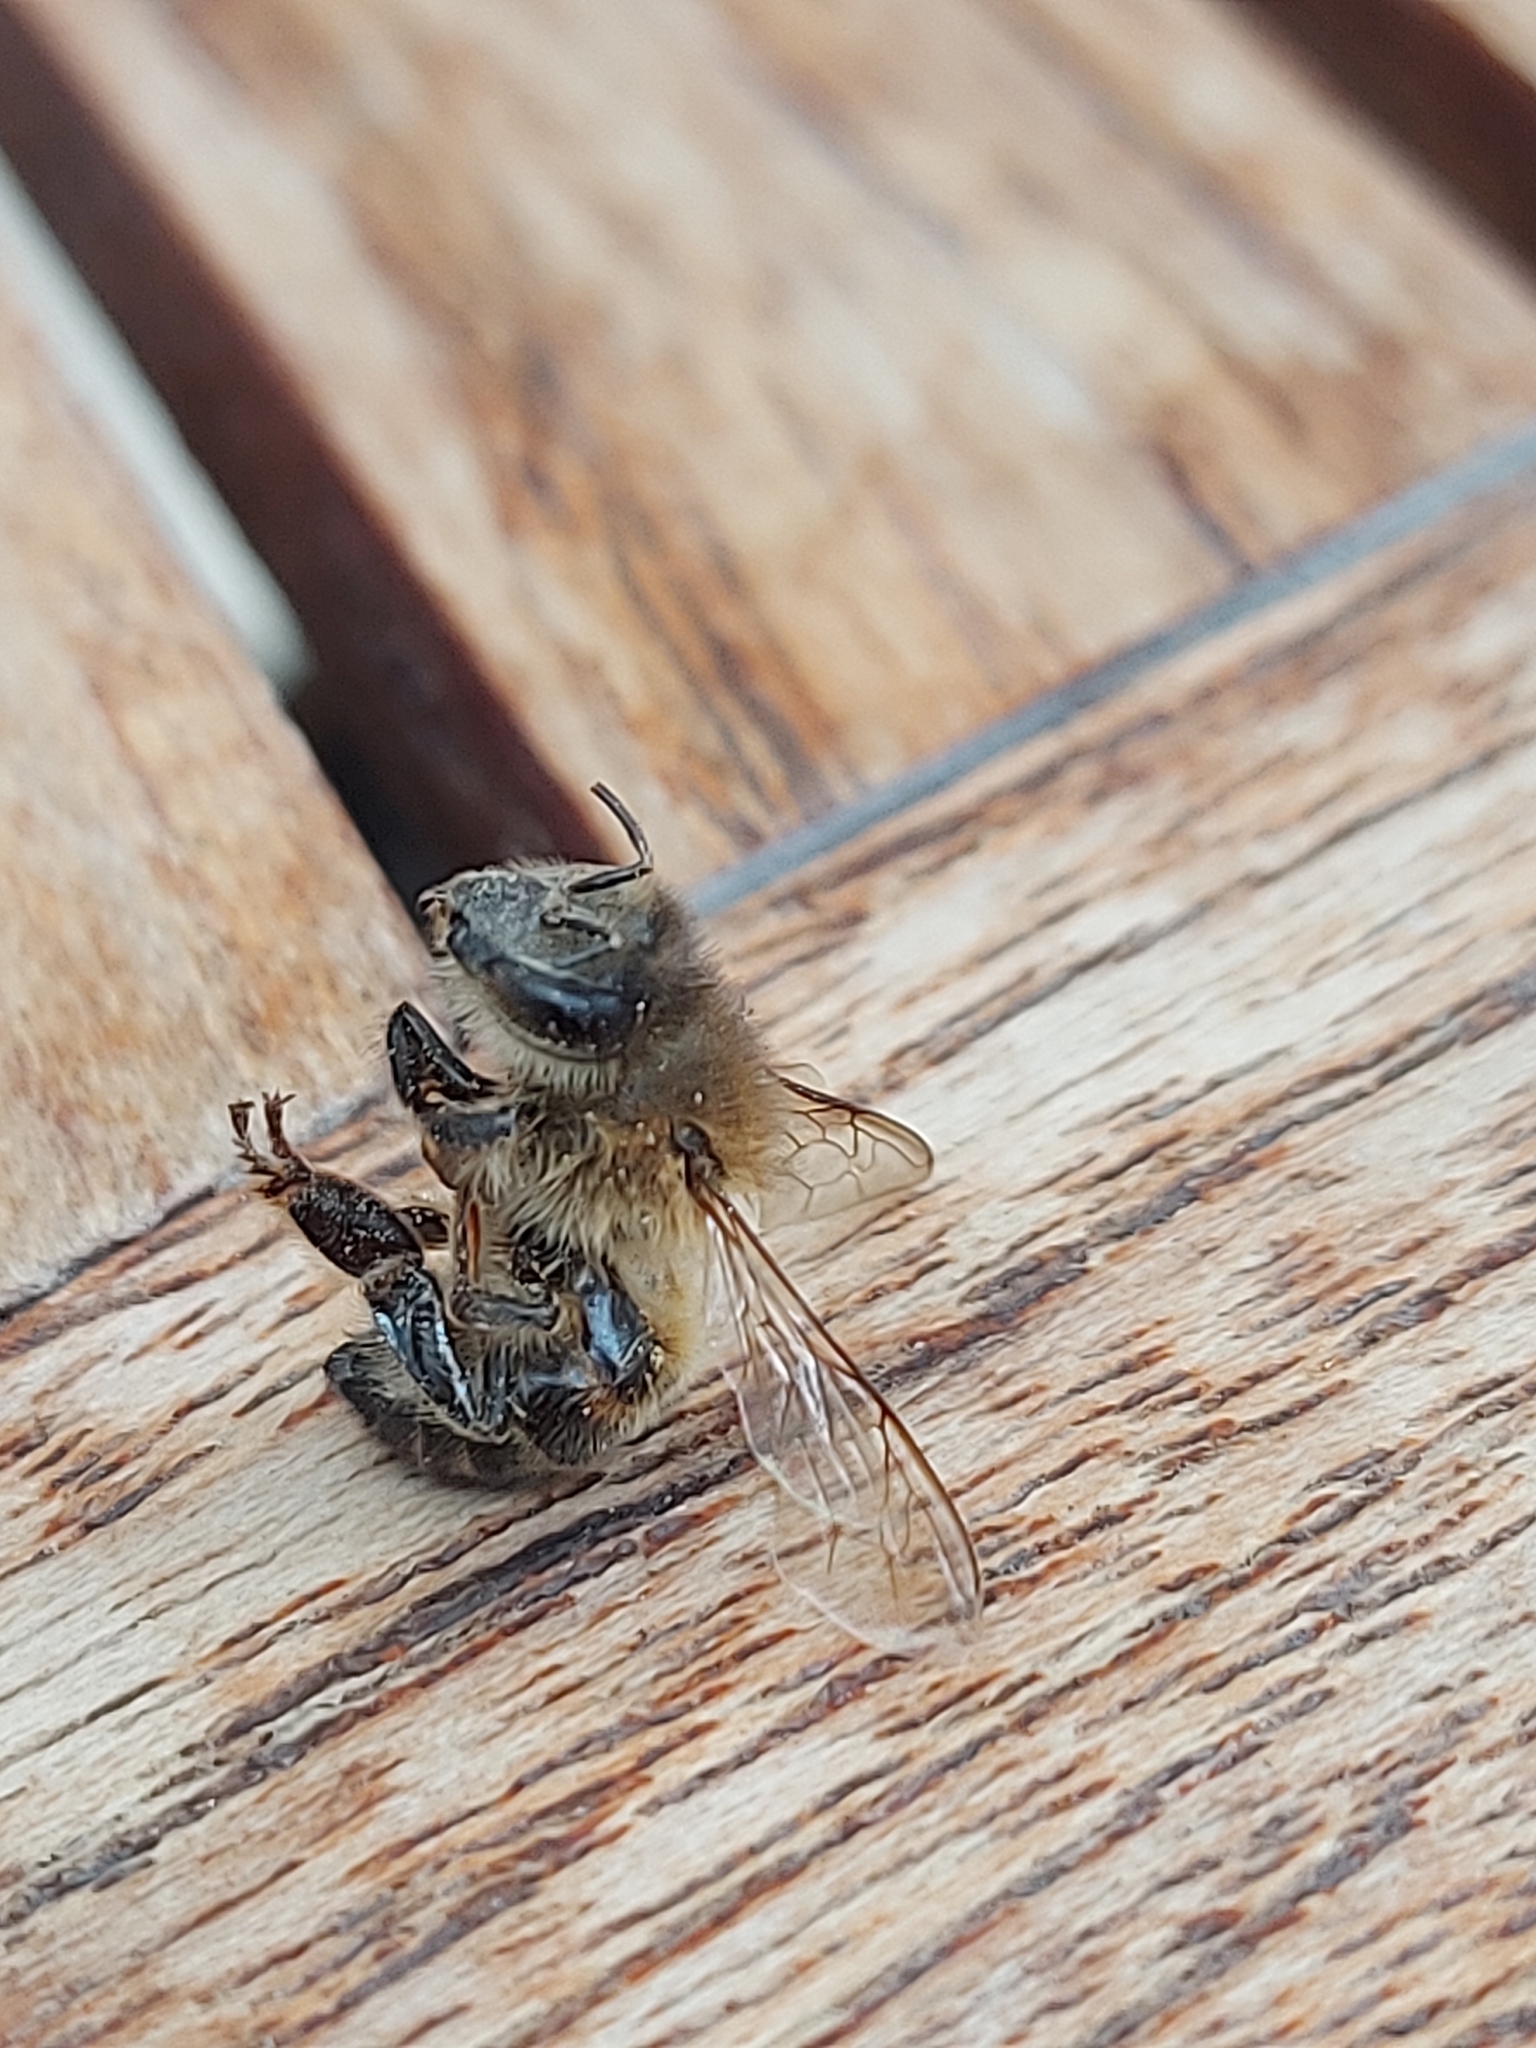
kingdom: Animalia
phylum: Arthropoda
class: Insecta
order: Hymenoptera
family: Apidae
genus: Apis
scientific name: Apis mellifera
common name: Honey bee
